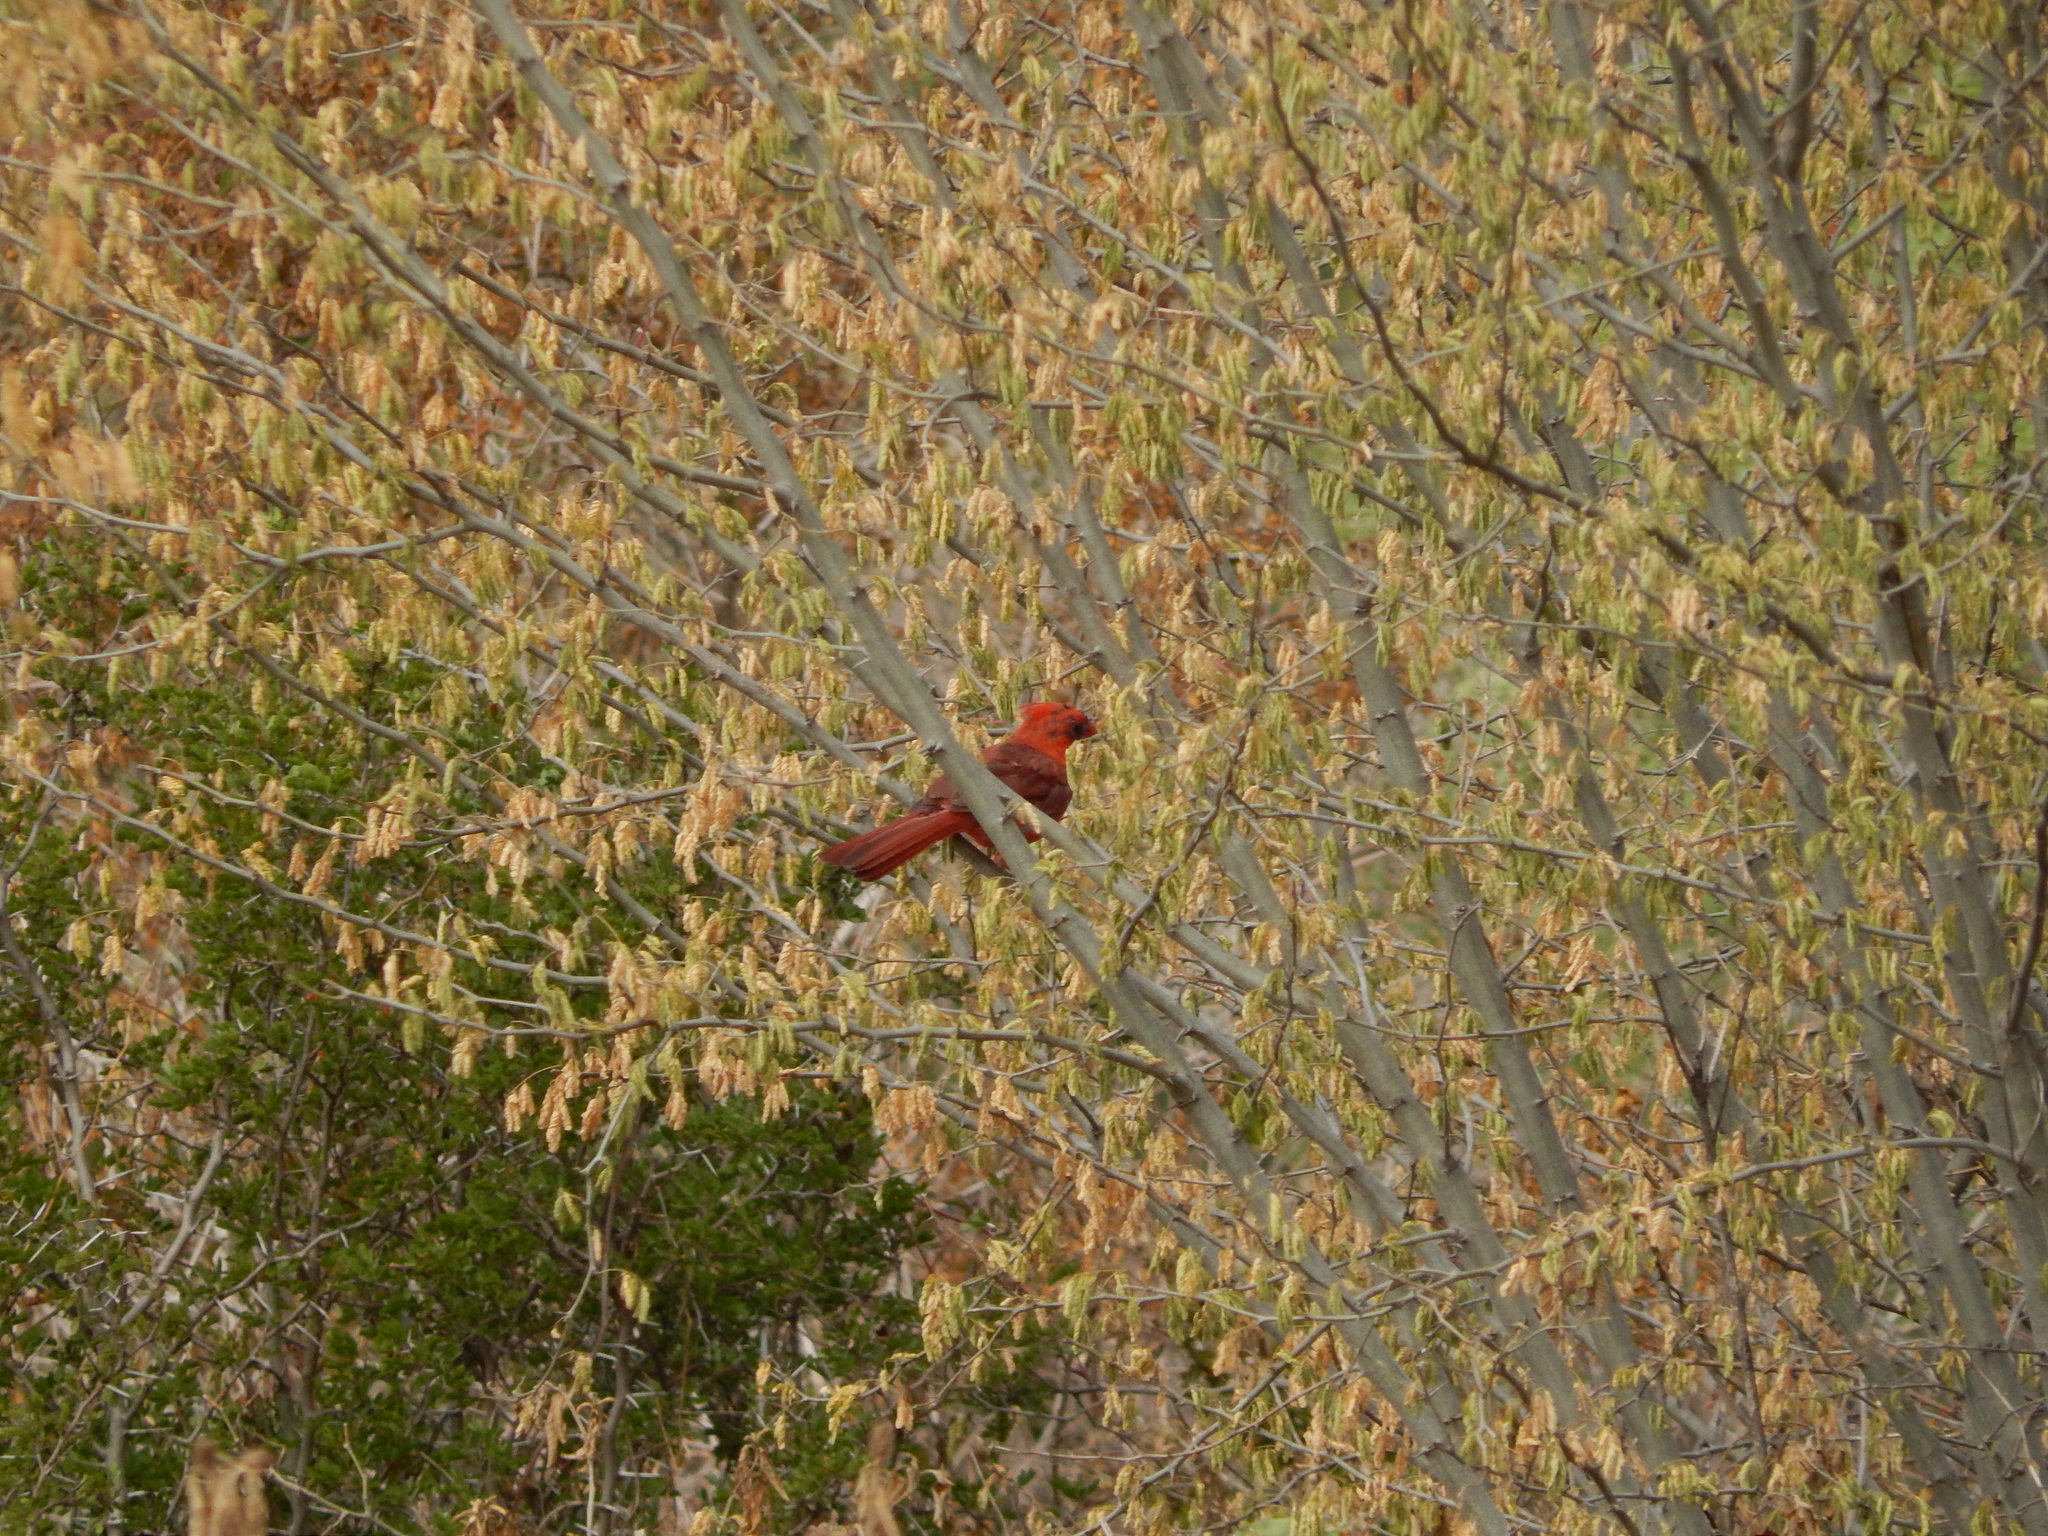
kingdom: Animalia
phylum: Chordata
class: Aves
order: Passeriformes
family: Cardinalidae
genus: Cardinalis
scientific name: Cardinalis cardinalis
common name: Northern cardinal
